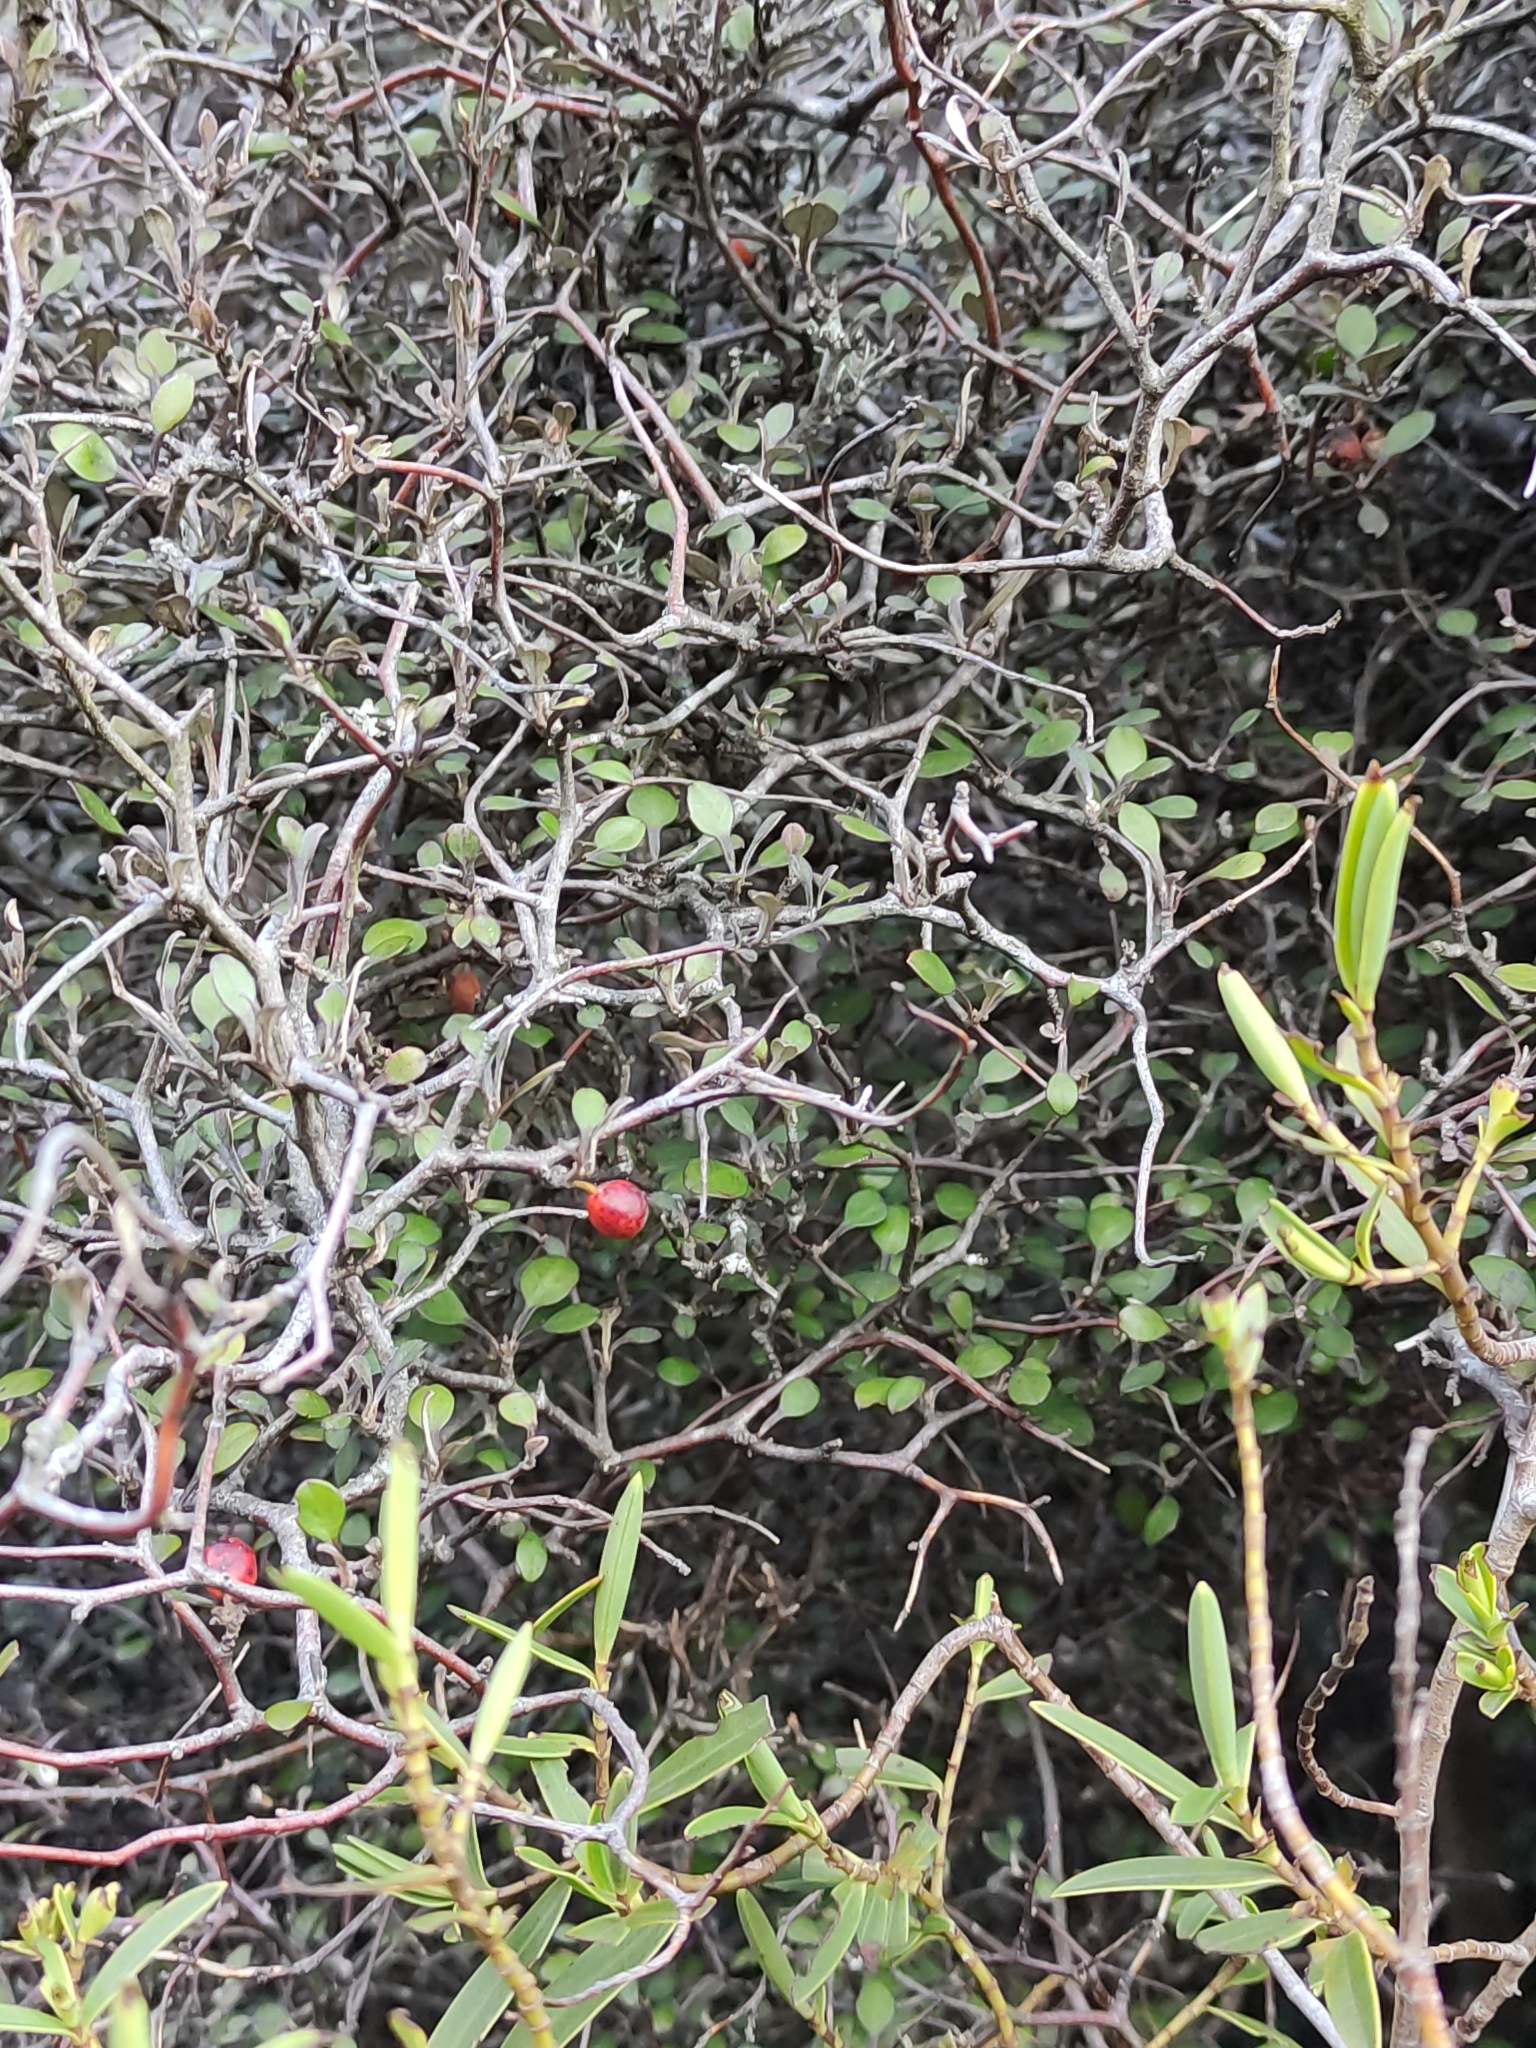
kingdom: Plantae
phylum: Tracheophyta
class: Magnoliopsida
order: Asterales
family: Argophyllaceae
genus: Corokia
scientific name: Corokia cotoneaster
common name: Wire nettingbush
